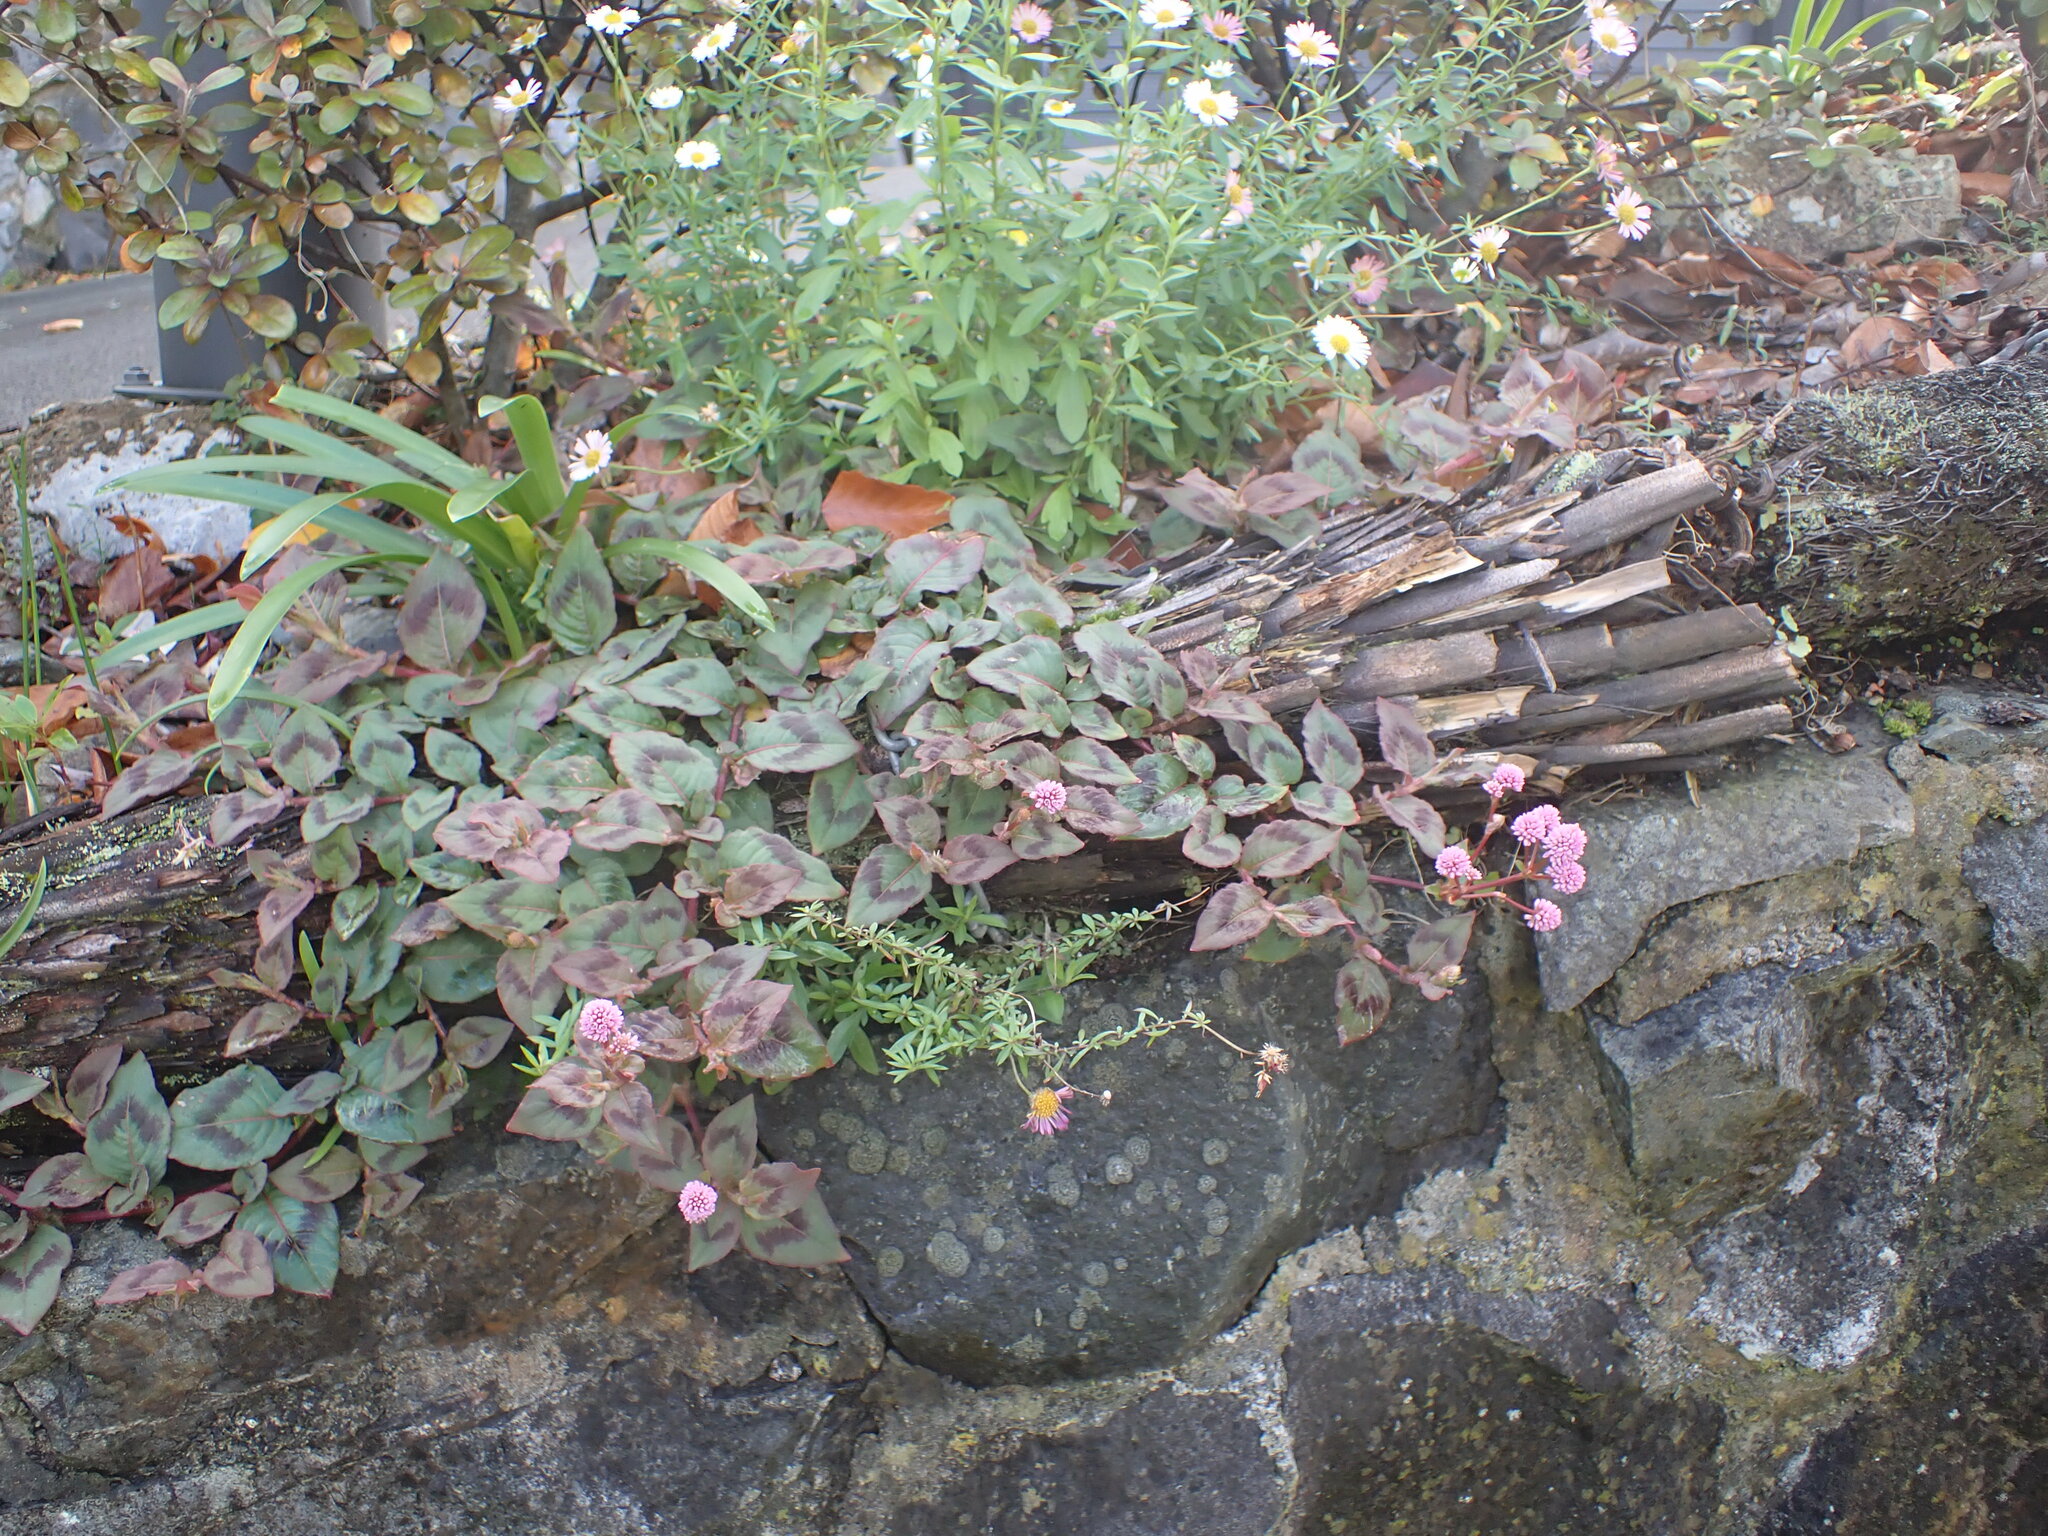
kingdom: Plantae
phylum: Tracheophyta
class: Magnoliopsida
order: Caryophyllales
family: Polygonaceae
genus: Persicaria
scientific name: Persicaria capitata
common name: Pinkhead smartweed
